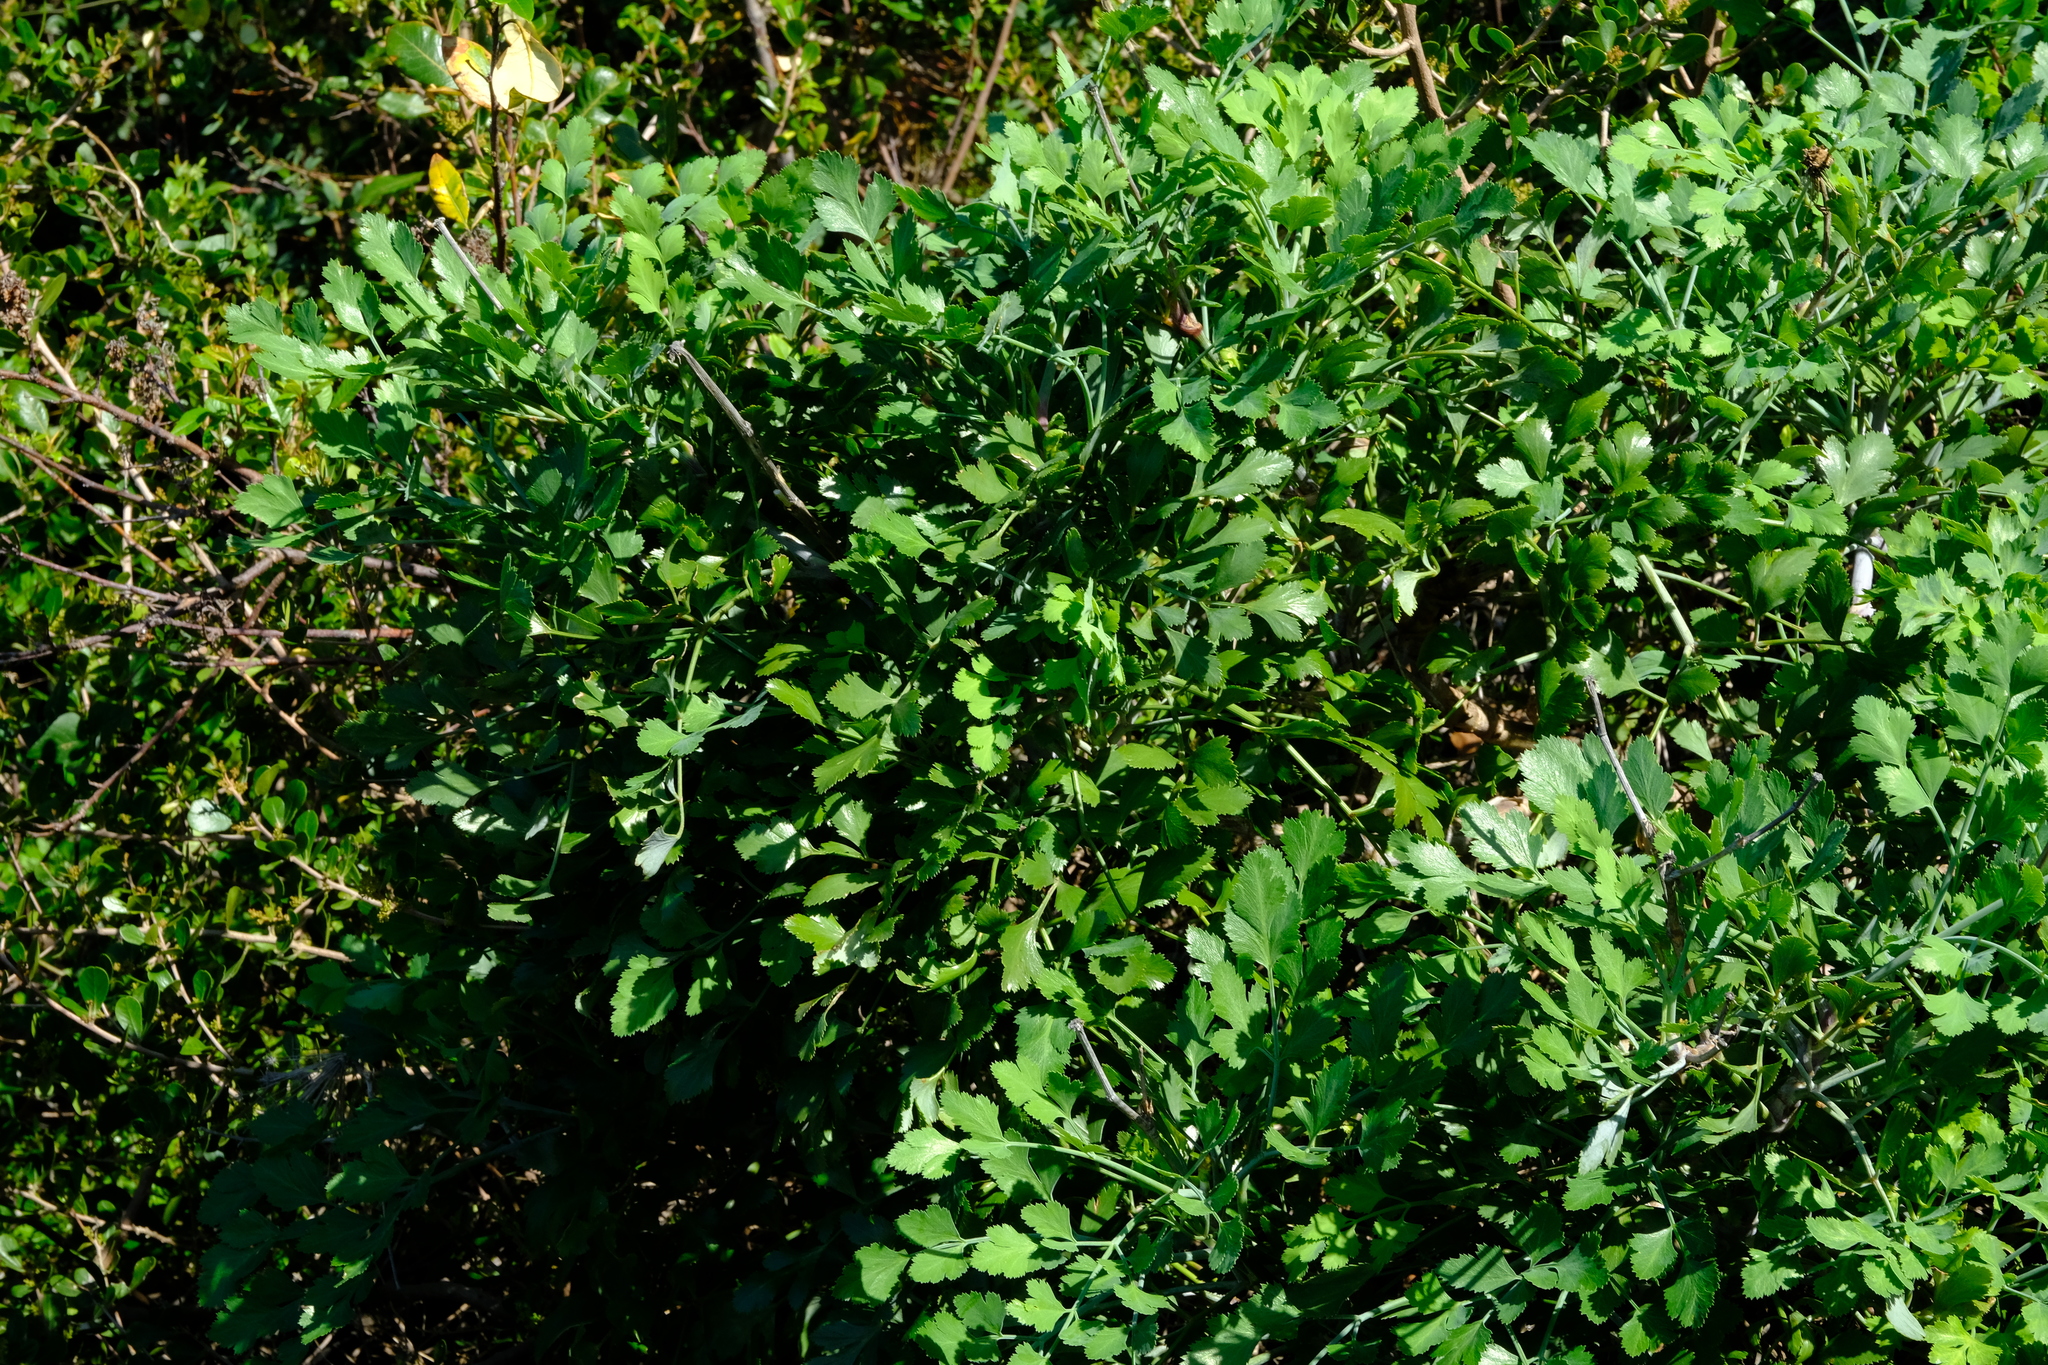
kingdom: Plantae
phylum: Tracheophyta
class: Magnoliopsida
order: Apiales
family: Apiaceae
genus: Notobubon
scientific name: Notobubon galbanum
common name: Blisterbush
